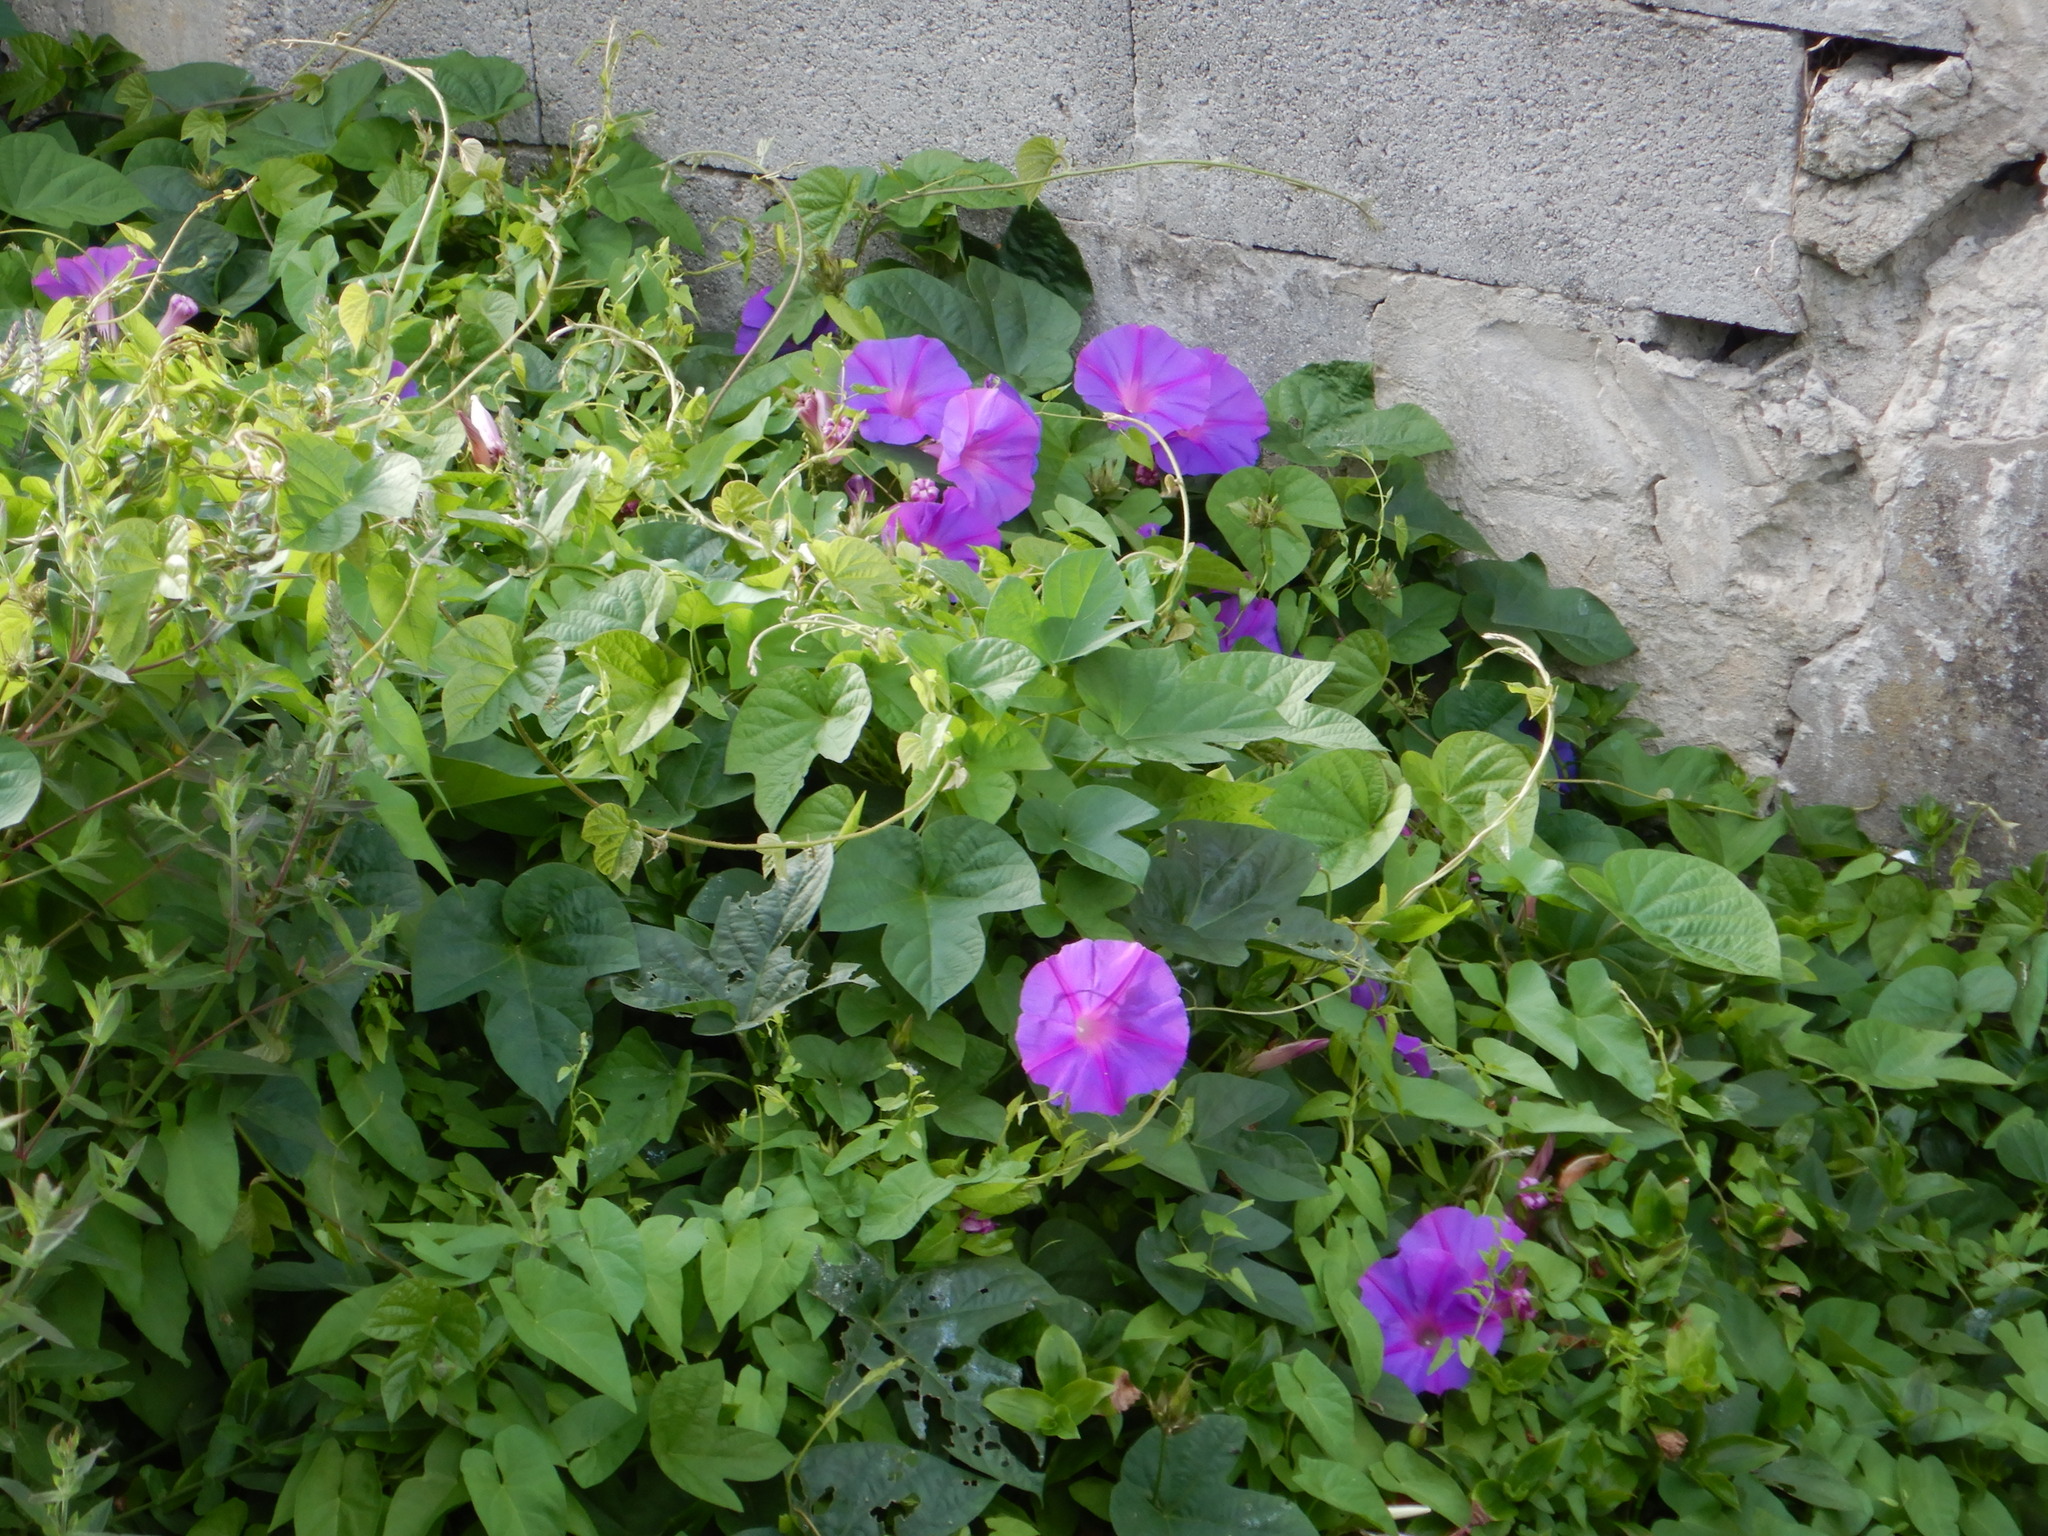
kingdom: Plantae
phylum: Tracheophyta
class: Magnoliopsida
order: Solanales
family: Convolvulaceae
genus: Ipomoea
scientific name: Ipomoea indica
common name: Blue dawnflower
